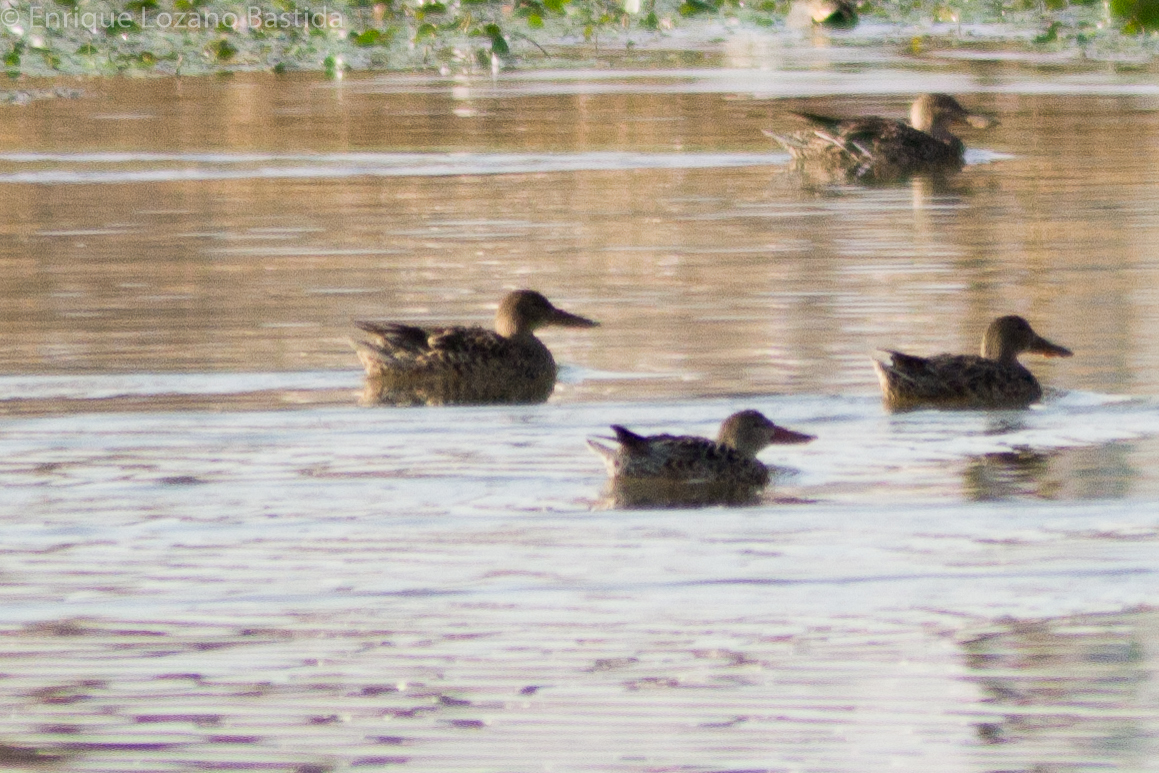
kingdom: Animalia
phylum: Chordata
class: Aves
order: Anseriformes
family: Anatidae
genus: Spatula
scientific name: Spatula clypeata
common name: Northern shoveler
